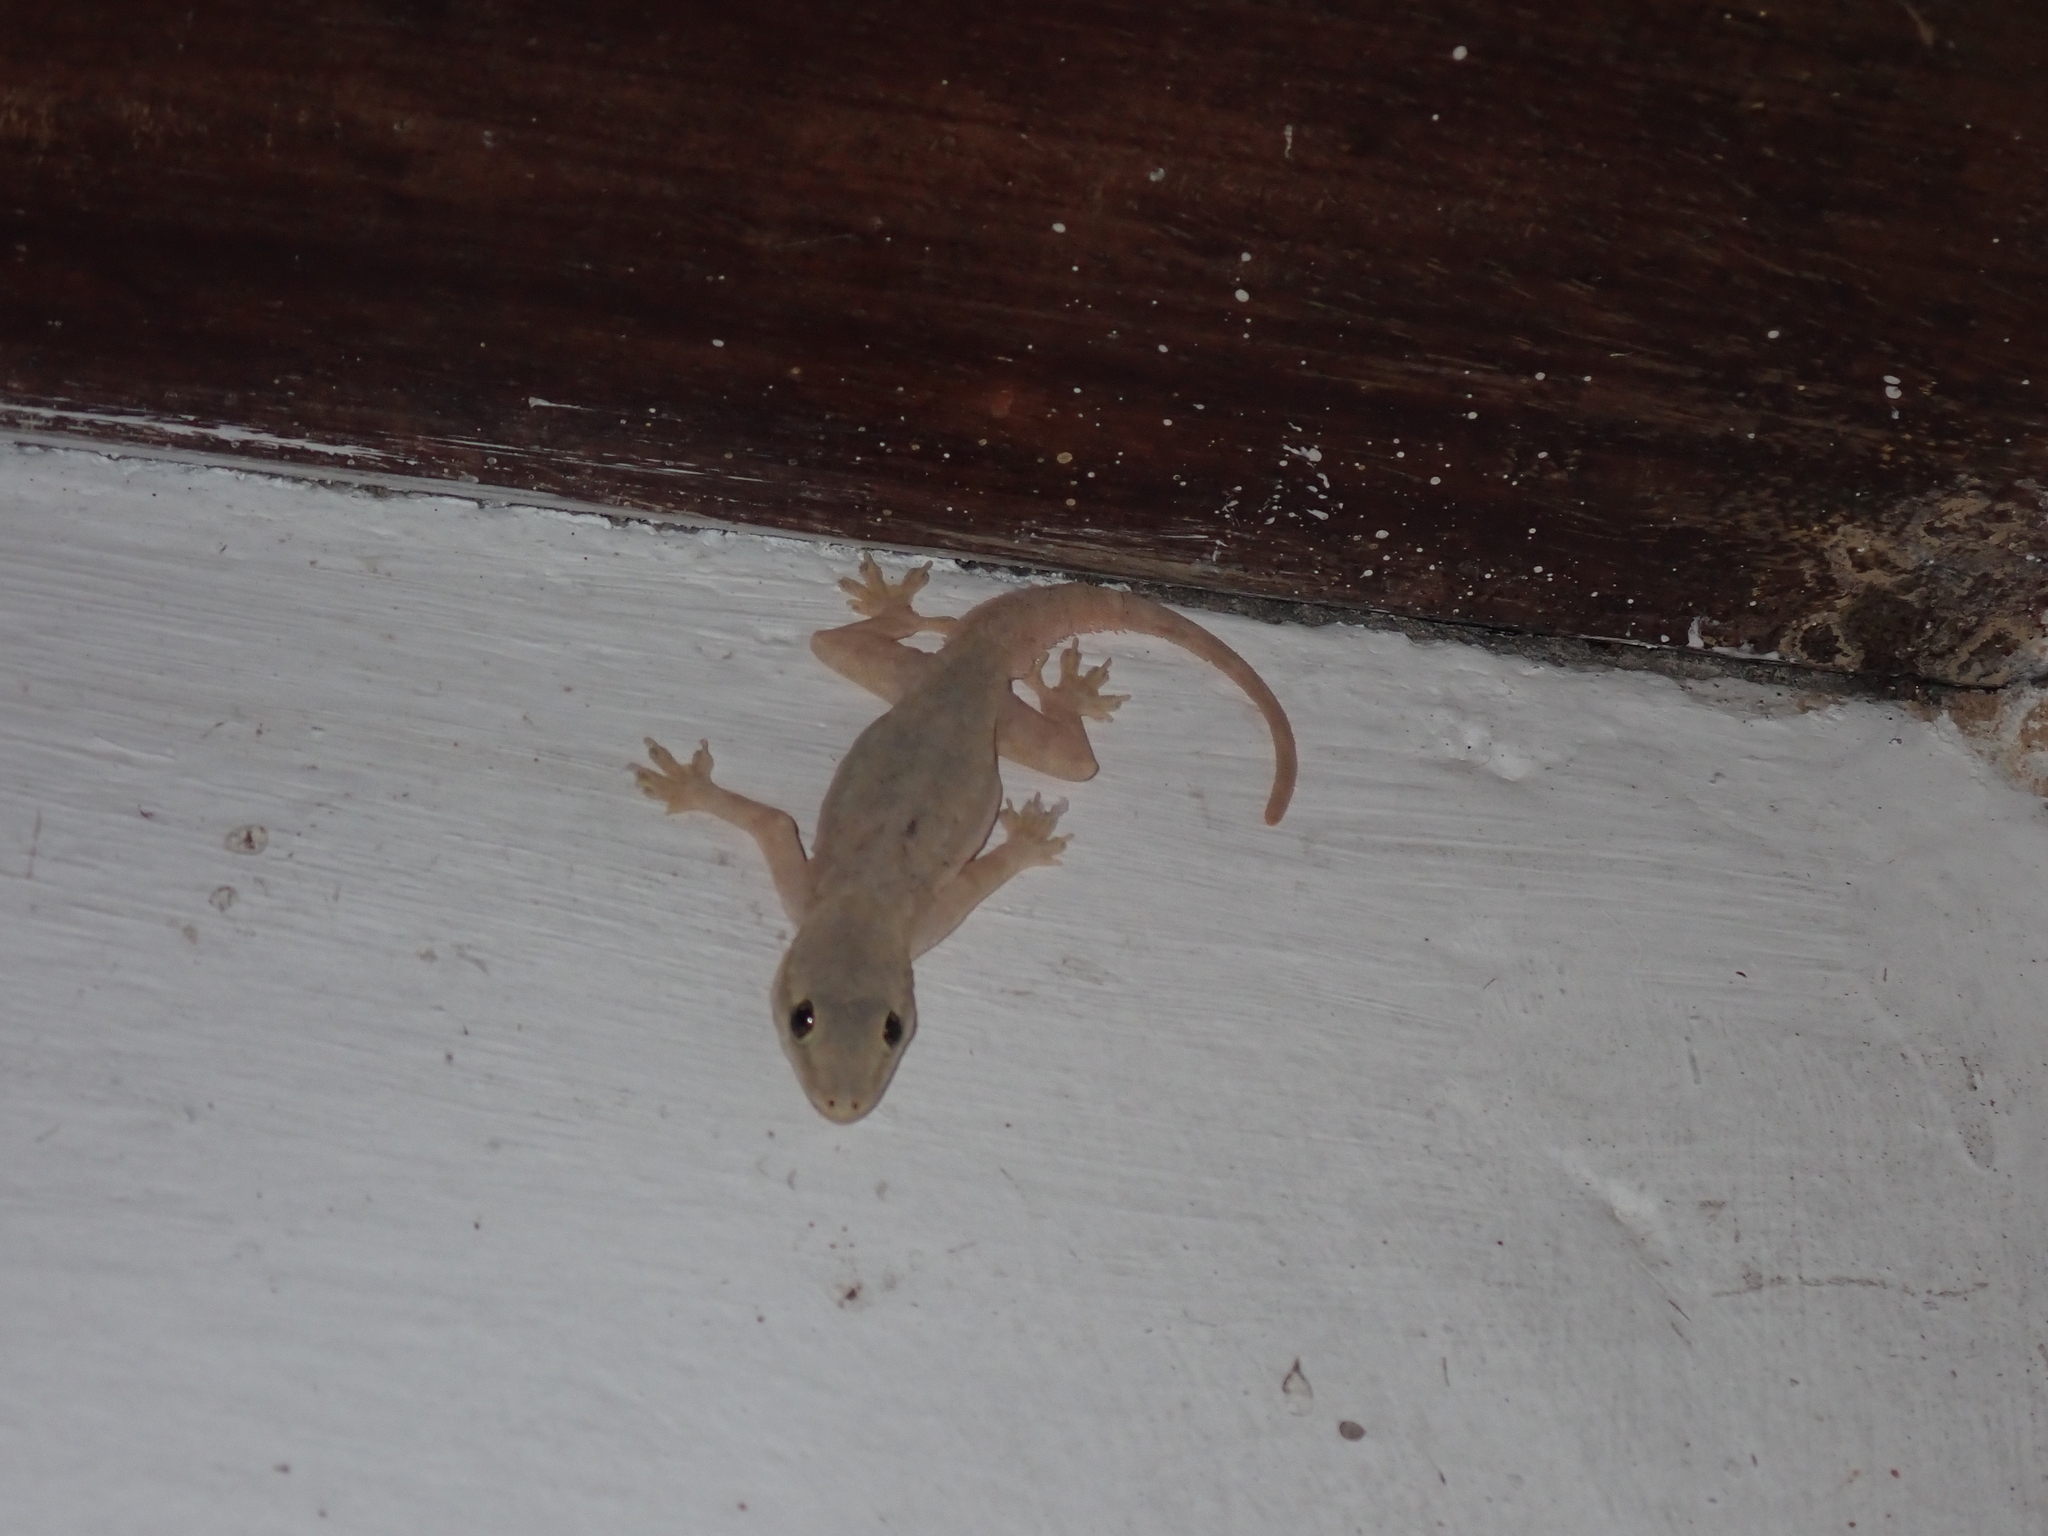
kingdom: Animalia
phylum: Chordata
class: Squamata
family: Gekkonidae
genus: Hemidactylus
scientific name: Hemidactylus platyurus
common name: Flat-tailed house gecko
